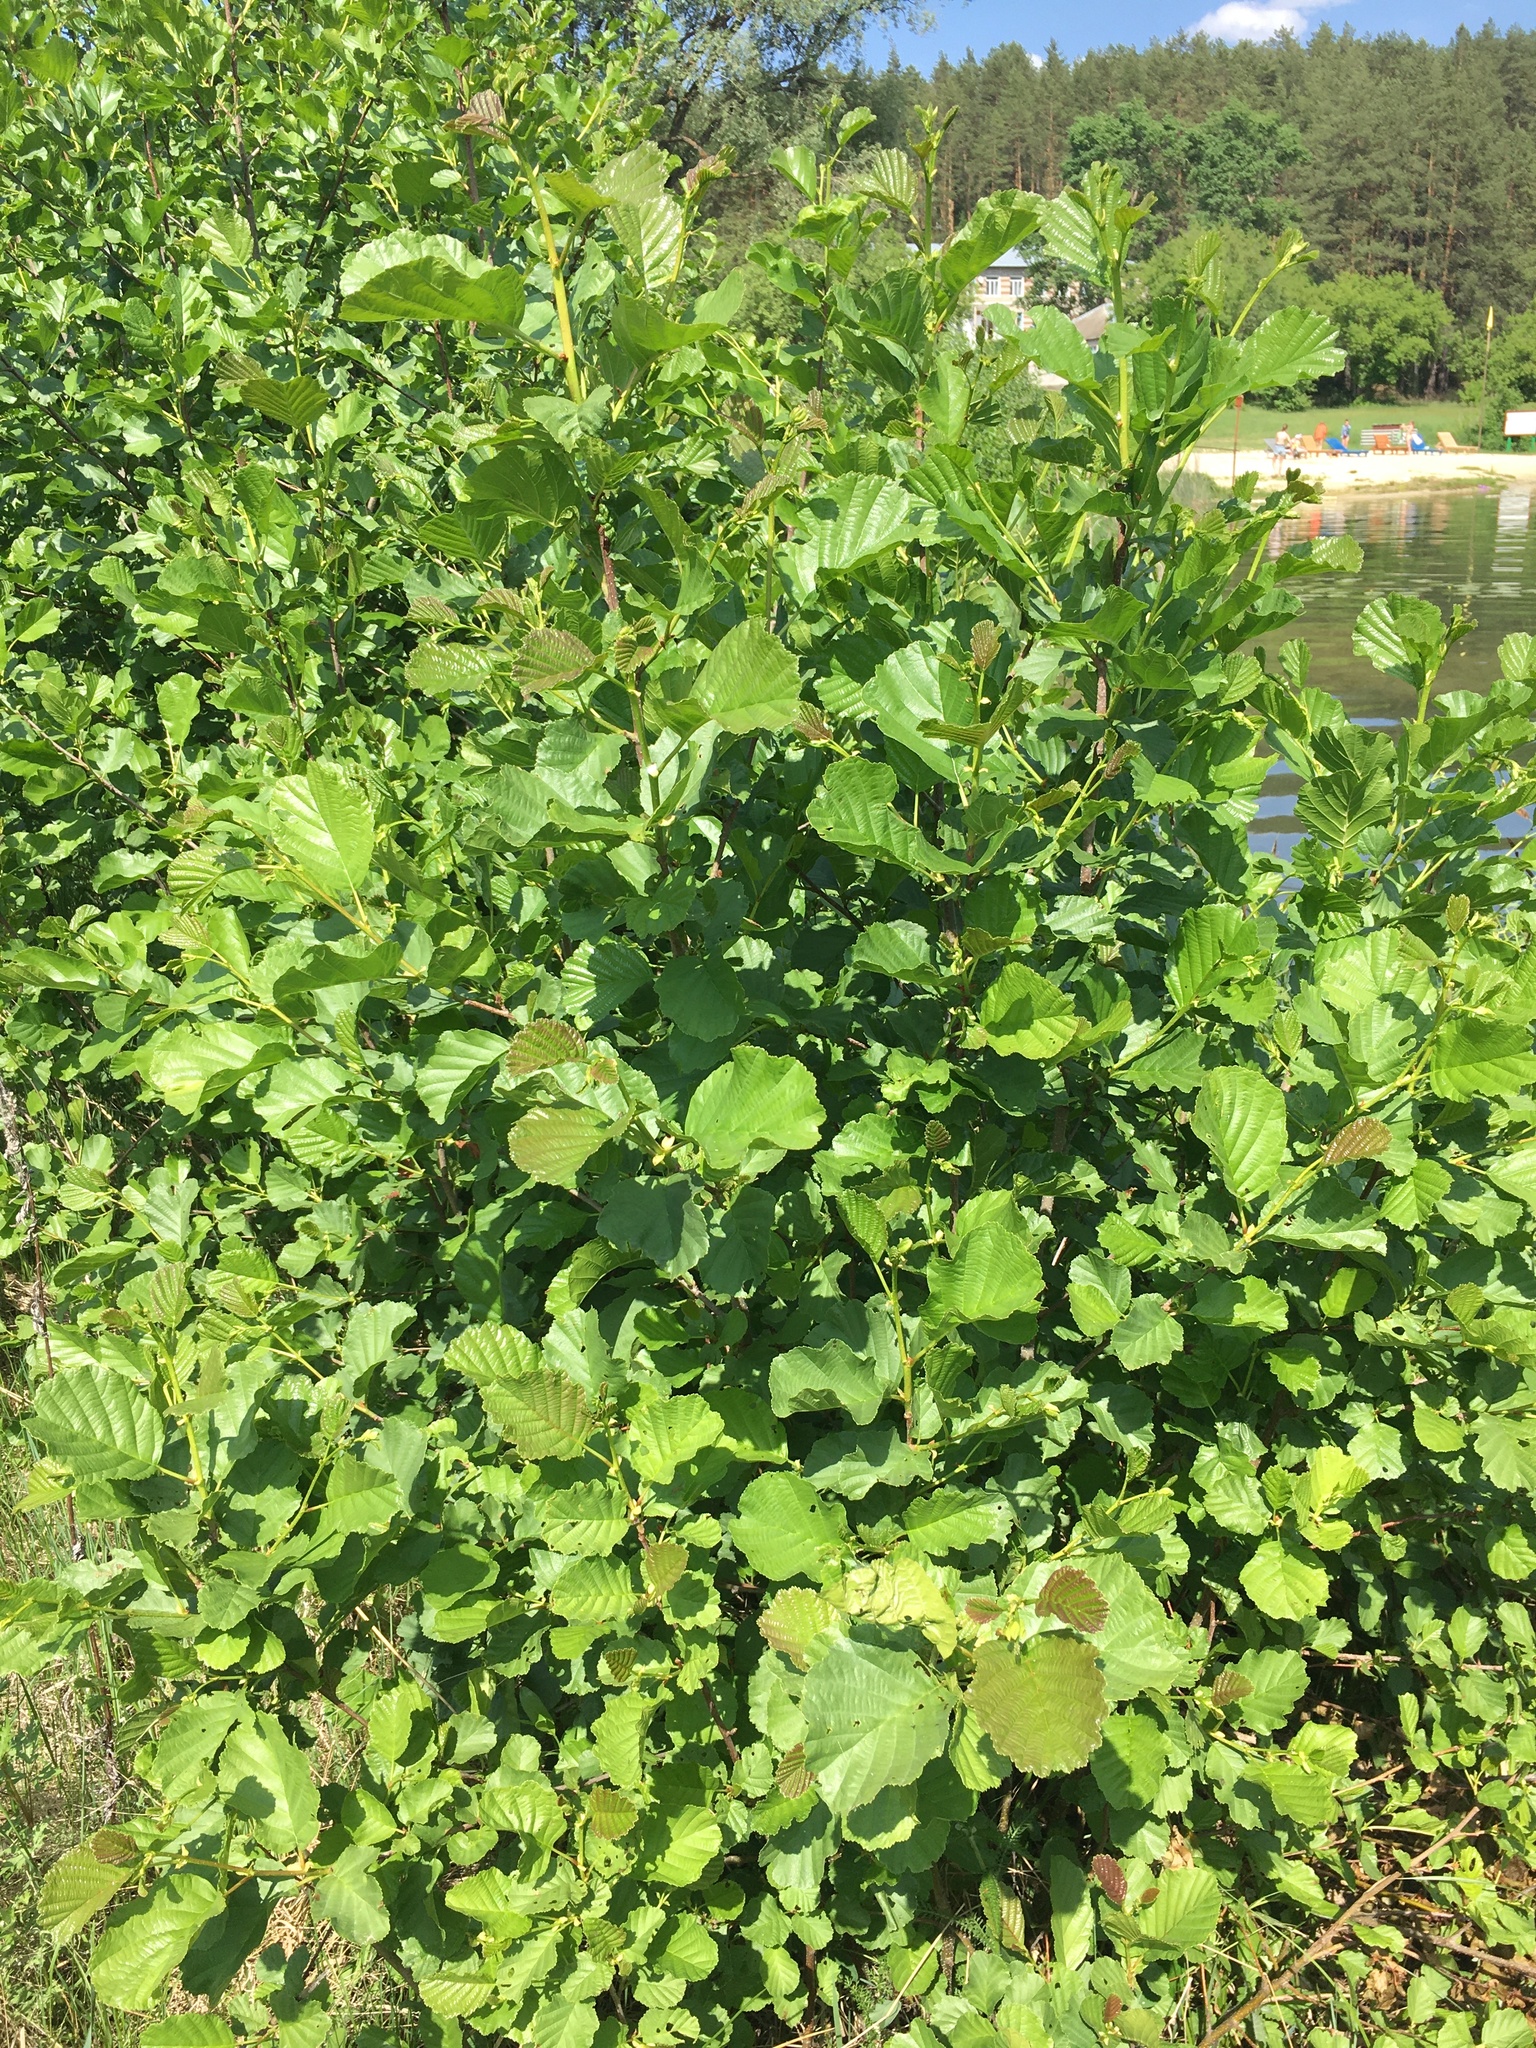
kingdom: Plantae
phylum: Tracheophyta
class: Magnoliopsida
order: Fagales
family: Betulaceae
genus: Alnus
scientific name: Alnus glutinosa
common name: Black alder
